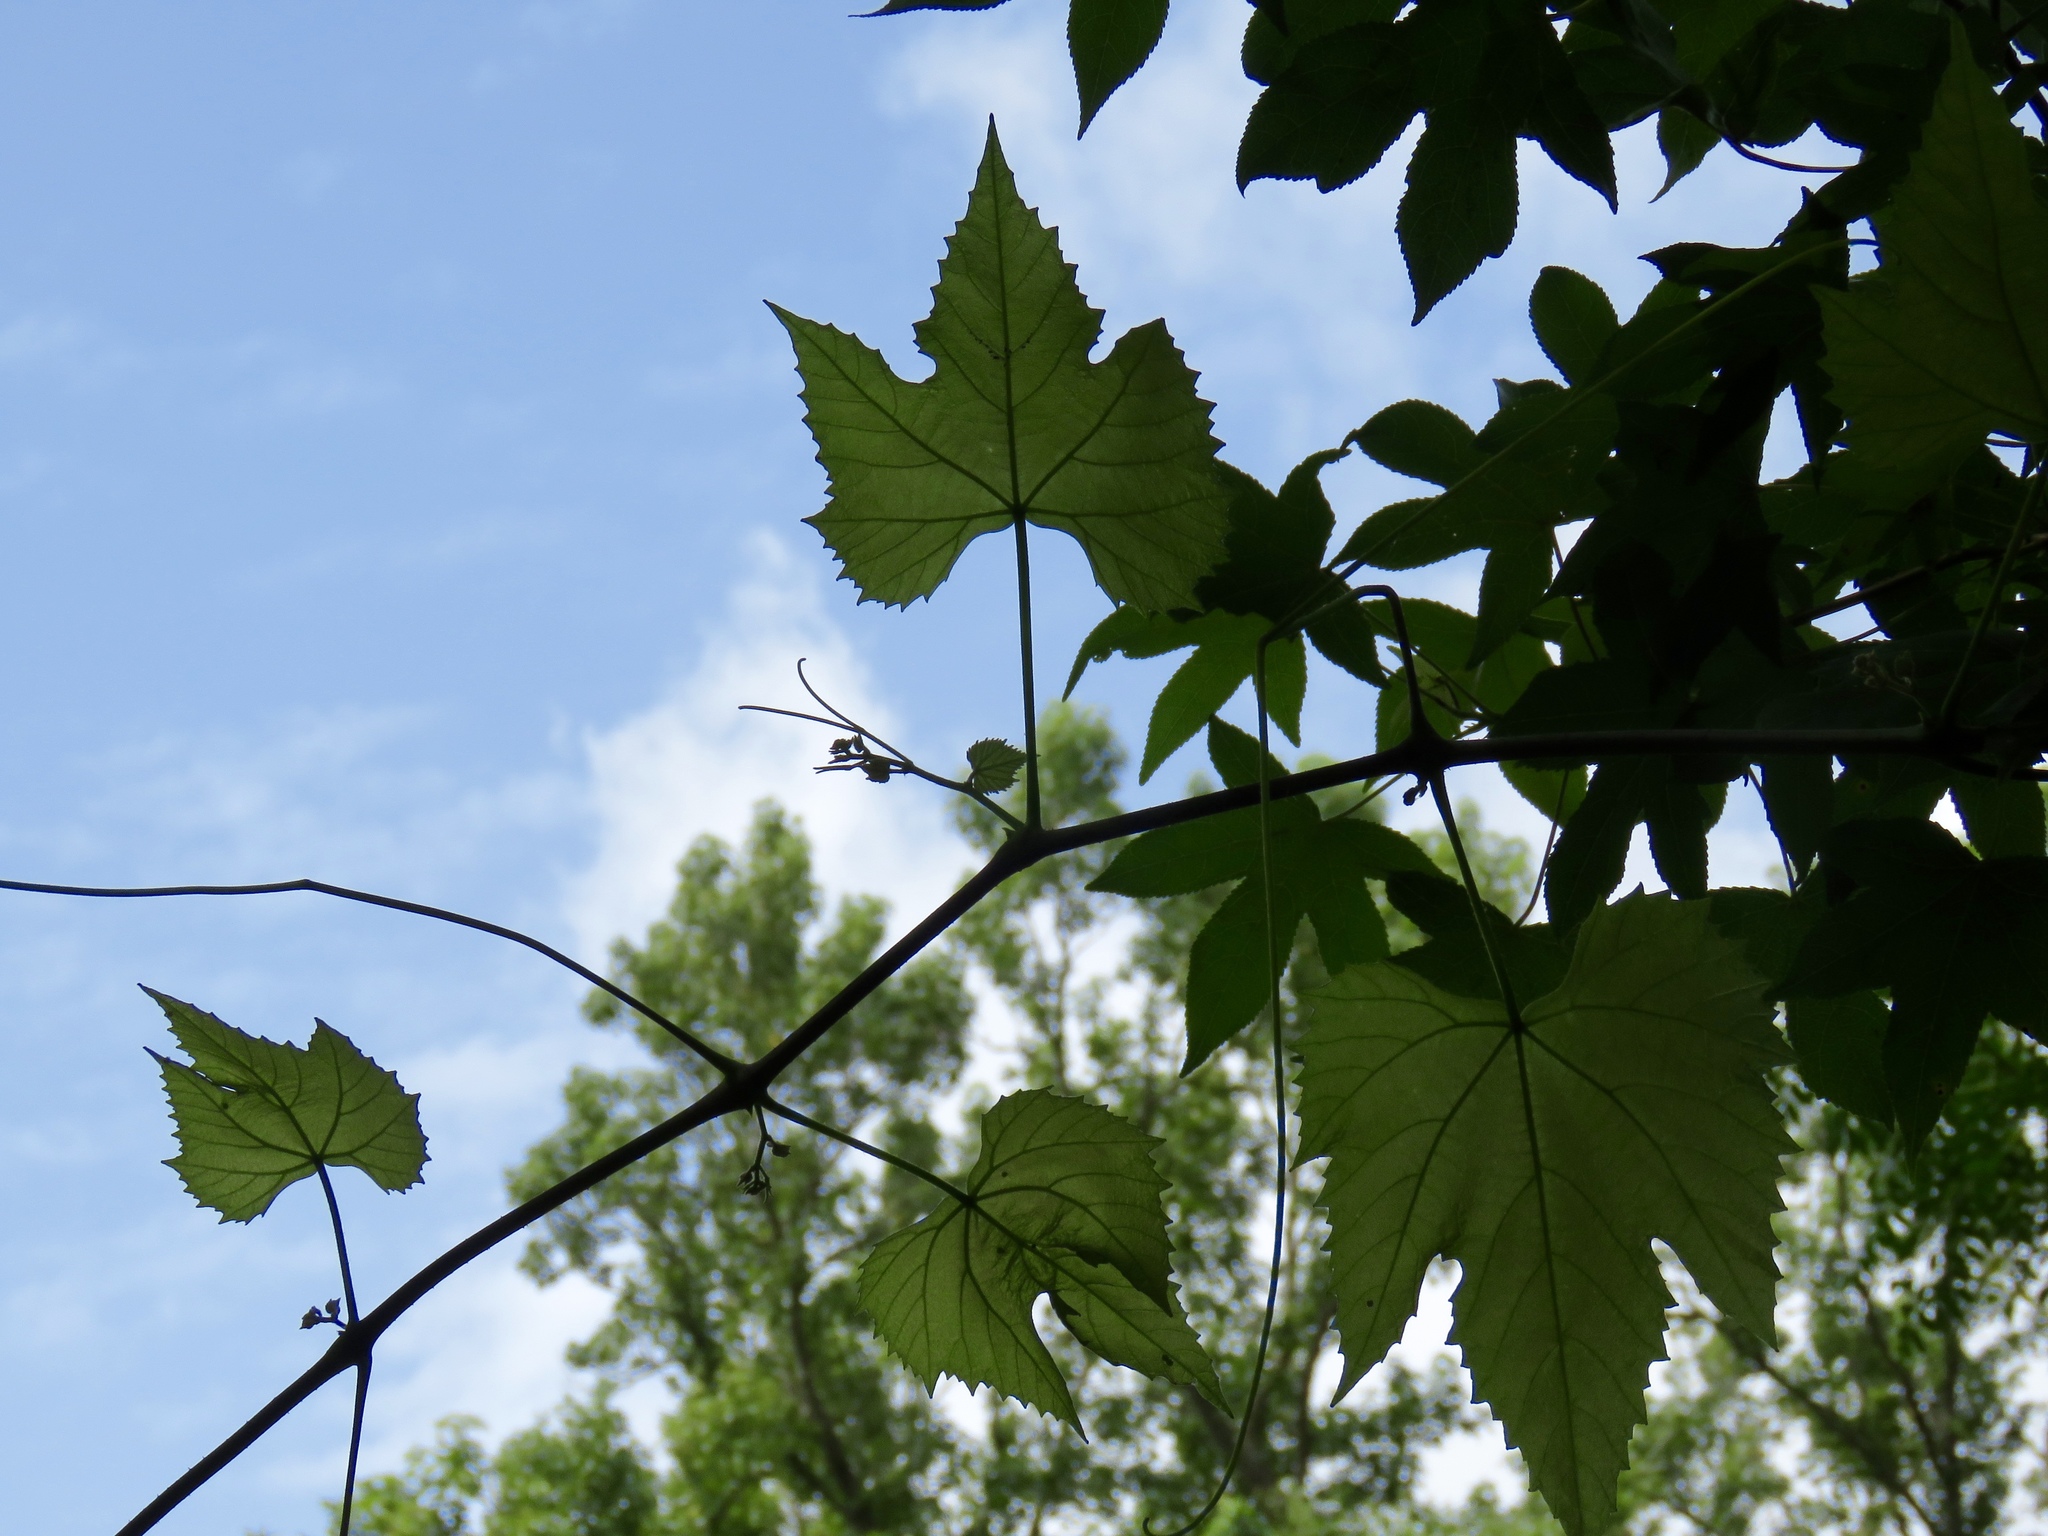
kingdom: Plantae
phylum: Tracheophyta
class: Magnoliopsida
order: Vitales
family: Vitaceae
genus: Vitis
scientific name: Vitis aestivalis
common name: Pigeon grape
